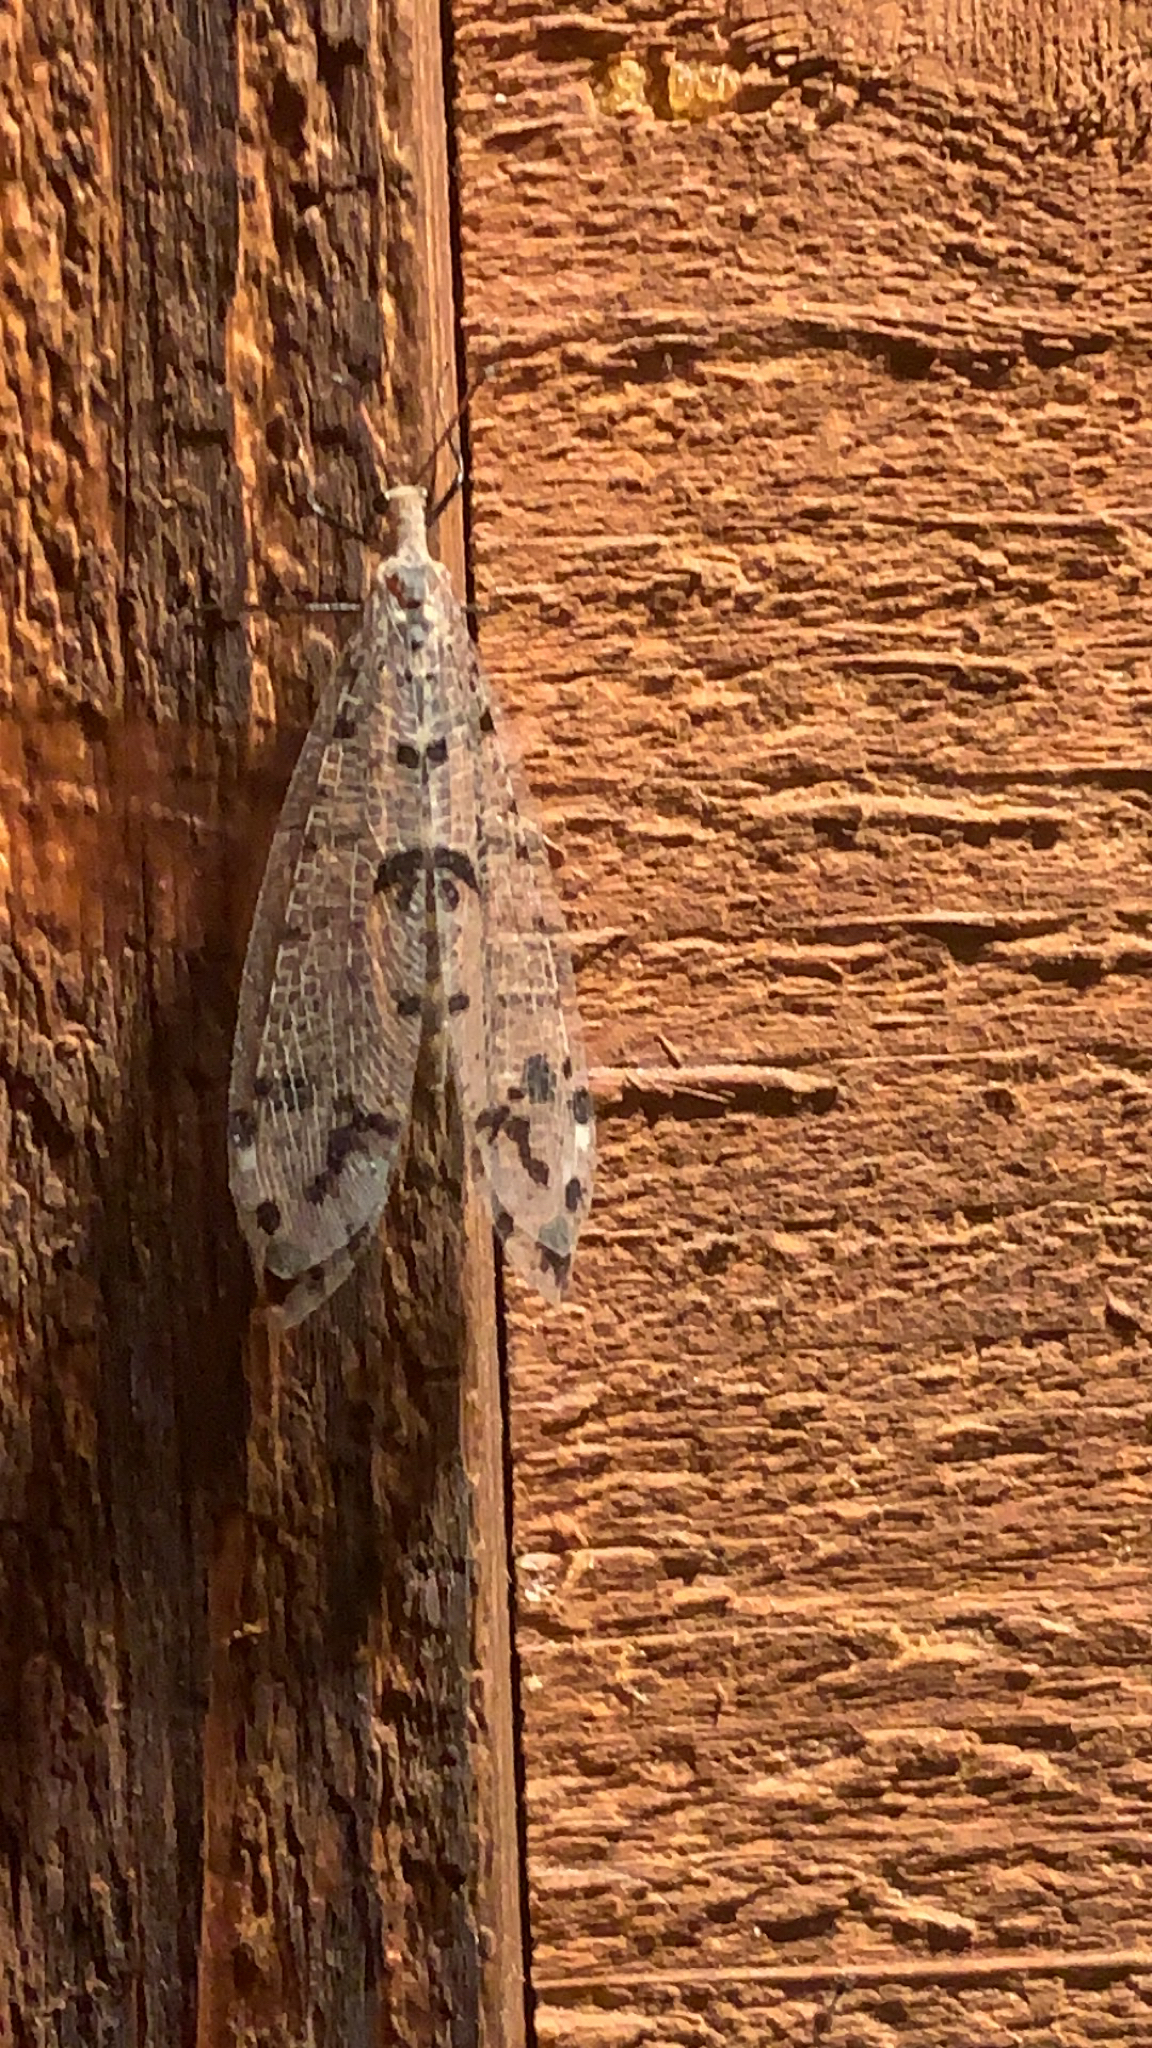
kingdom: Animalia
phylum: Arthropoda
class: Insecta
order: Neuroptera
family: Myrmeleontidae
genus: Dendroleon
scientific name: Dendroleon obsoletus
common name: Eastern spotted-winged antlion
